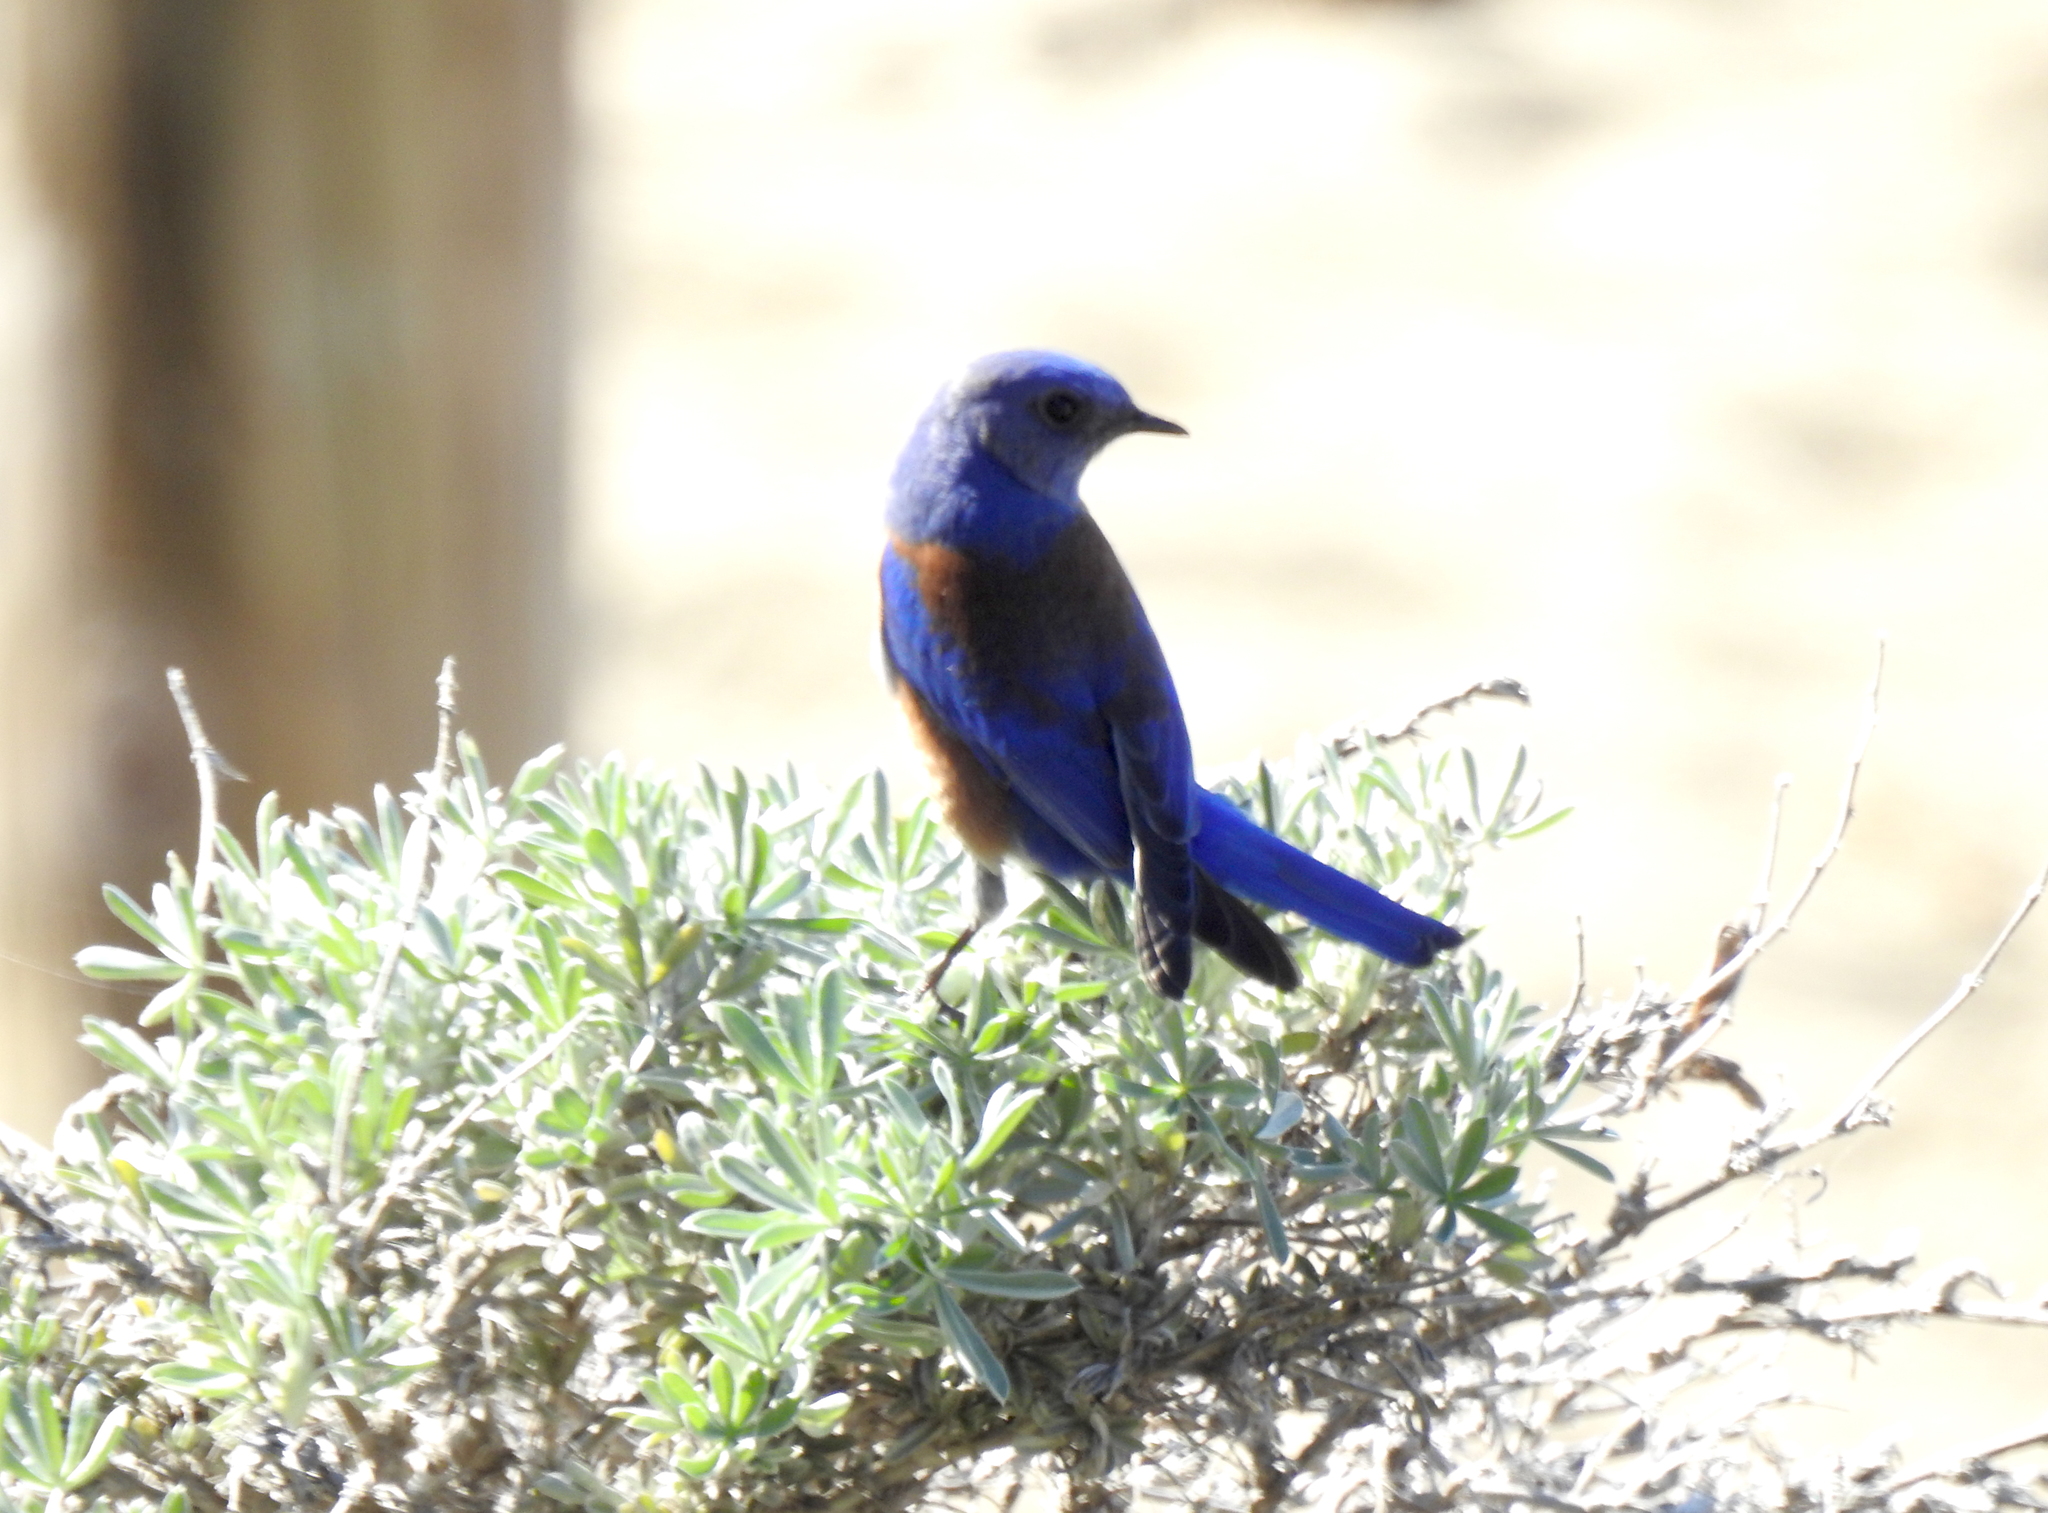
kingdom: Animalia
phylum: Chordata
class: Aves
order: Passeriformes
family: Turdidae
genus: Sialia
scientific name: Sialia mexicana
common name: Western bluebird
